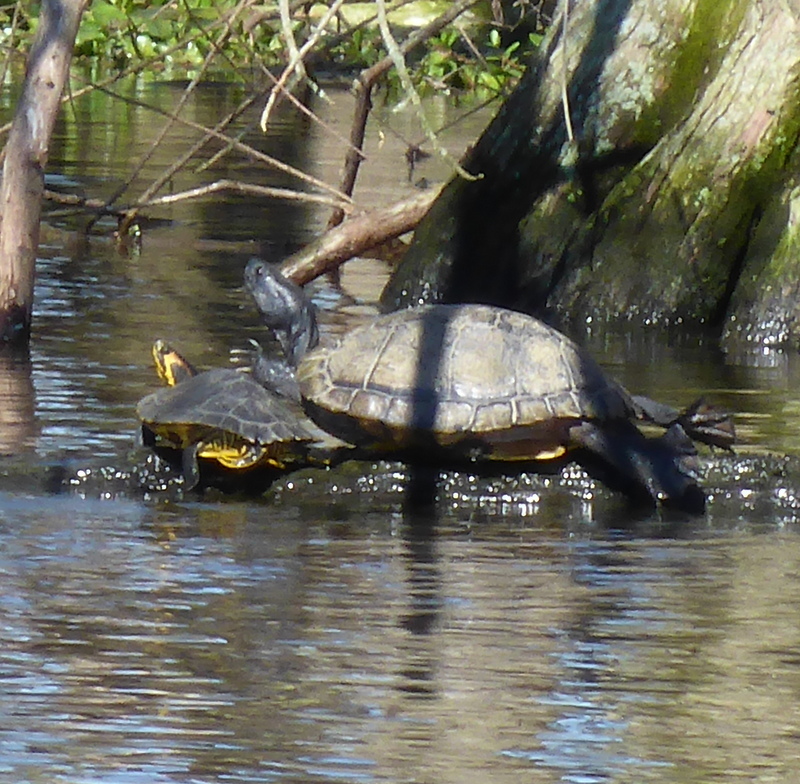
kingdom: Animalia
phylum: Chordata
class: Testudines
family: Emydidae
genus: Trachemys
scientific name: Trachemys scripta
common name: Slider
